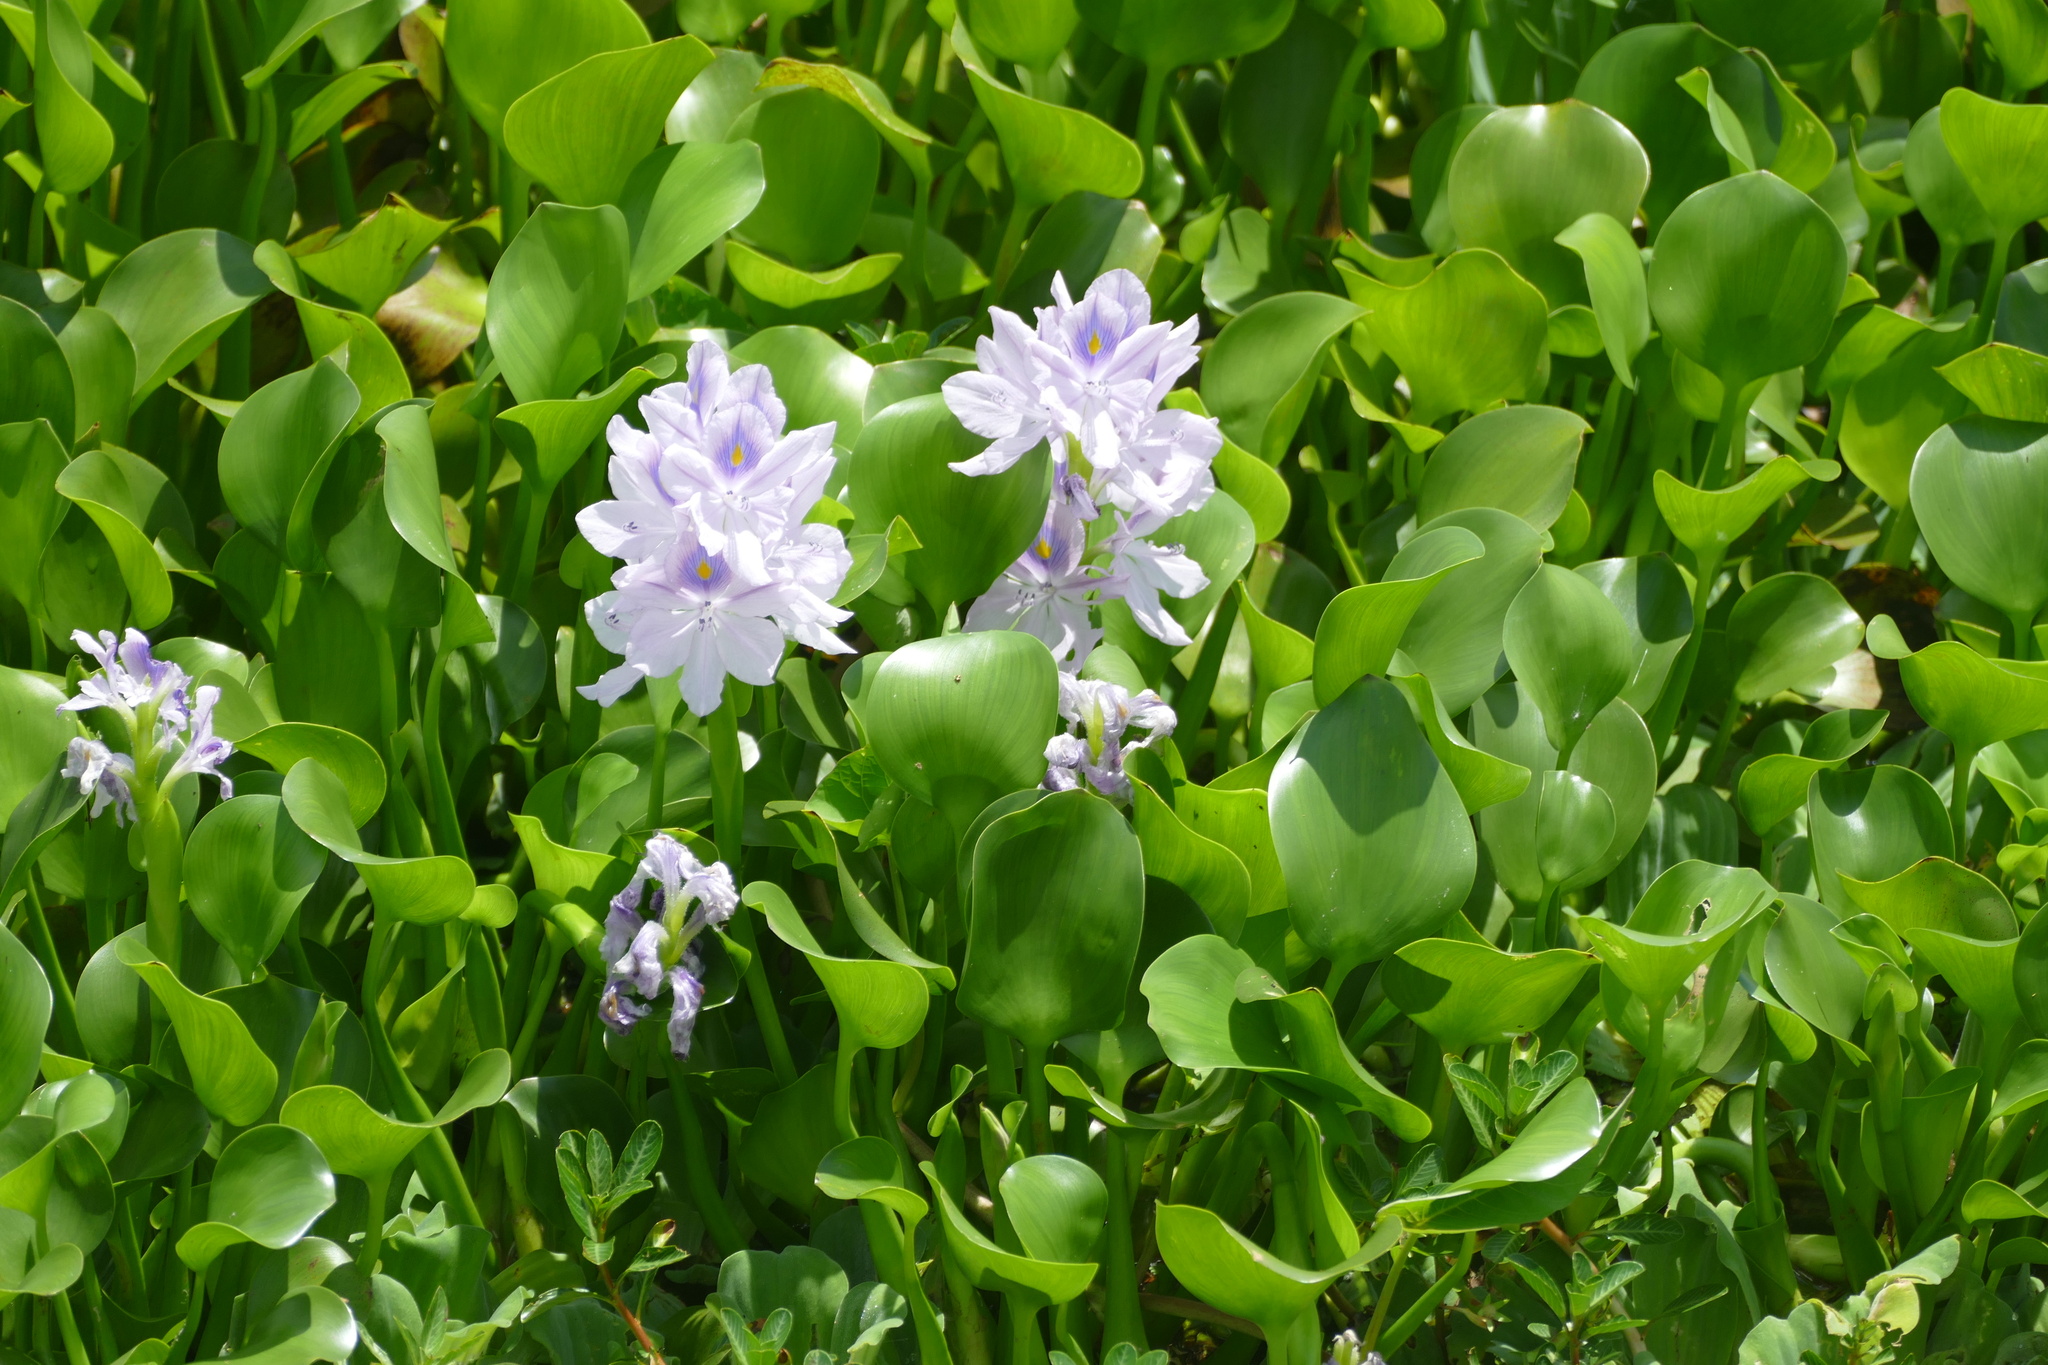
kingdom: Plantae
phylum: Tracheophyta
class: Liliopsida
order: Commelinales
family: Pontederiaceae
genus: Pontederia
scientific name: Pontederia crassipes
